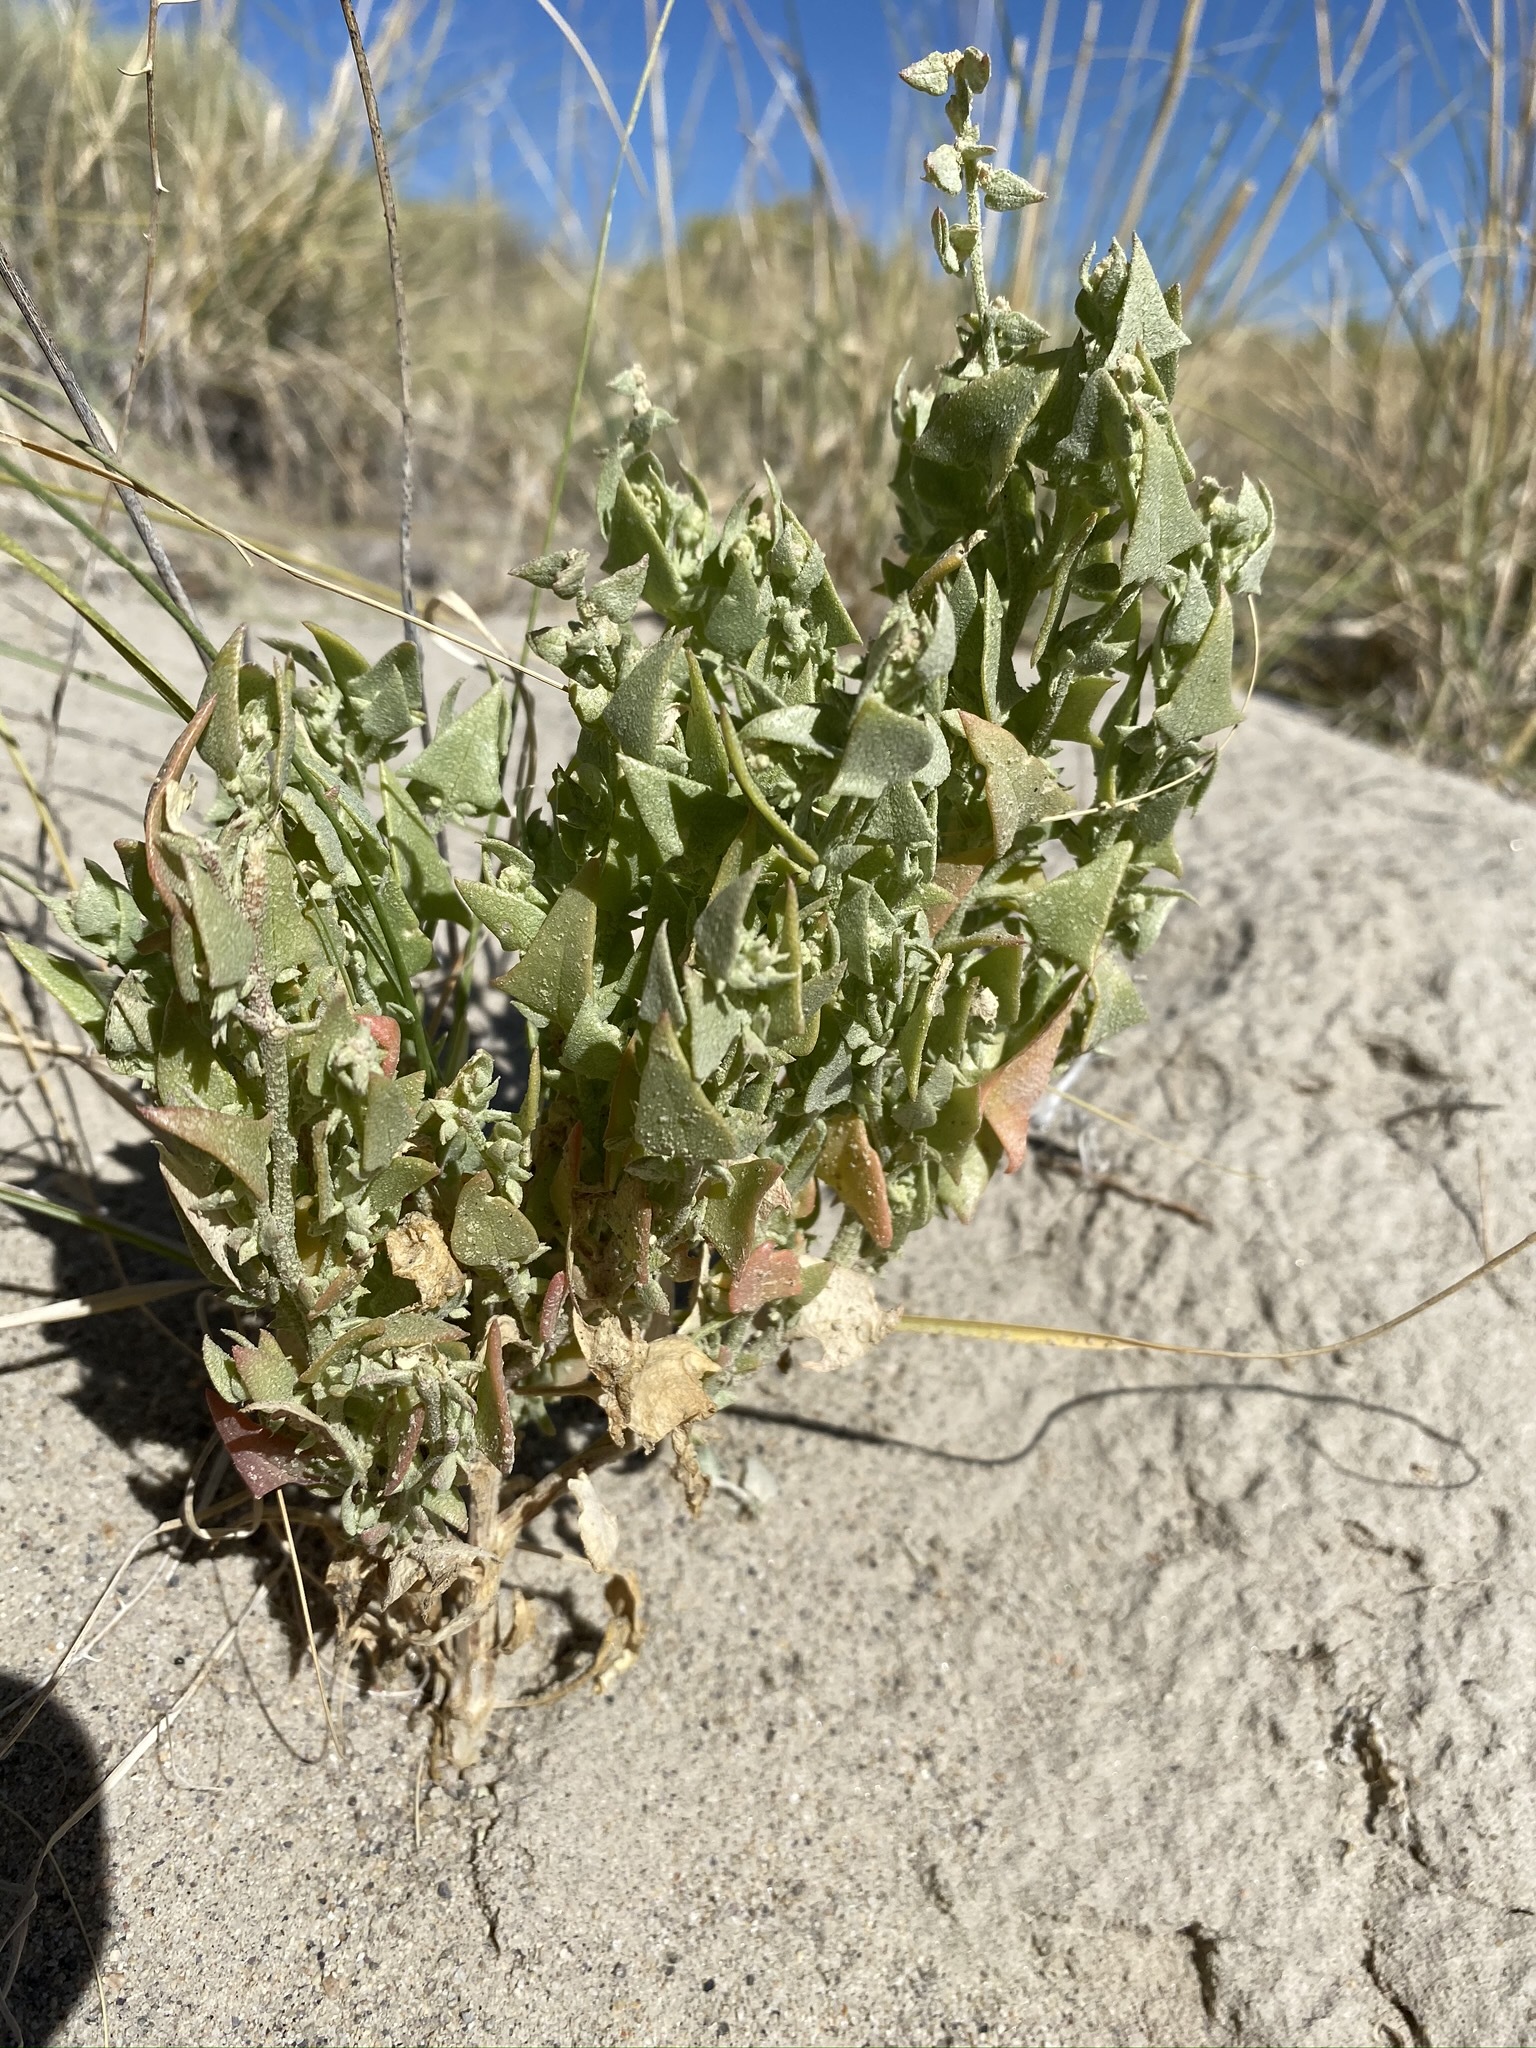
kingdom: Plantae
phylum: Tracheophyta
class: Magnoliopsida
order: Caryophyllales
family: Amaranthaceae
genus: Stutzia
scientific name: Stutzia covillei
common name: Coville's orach
